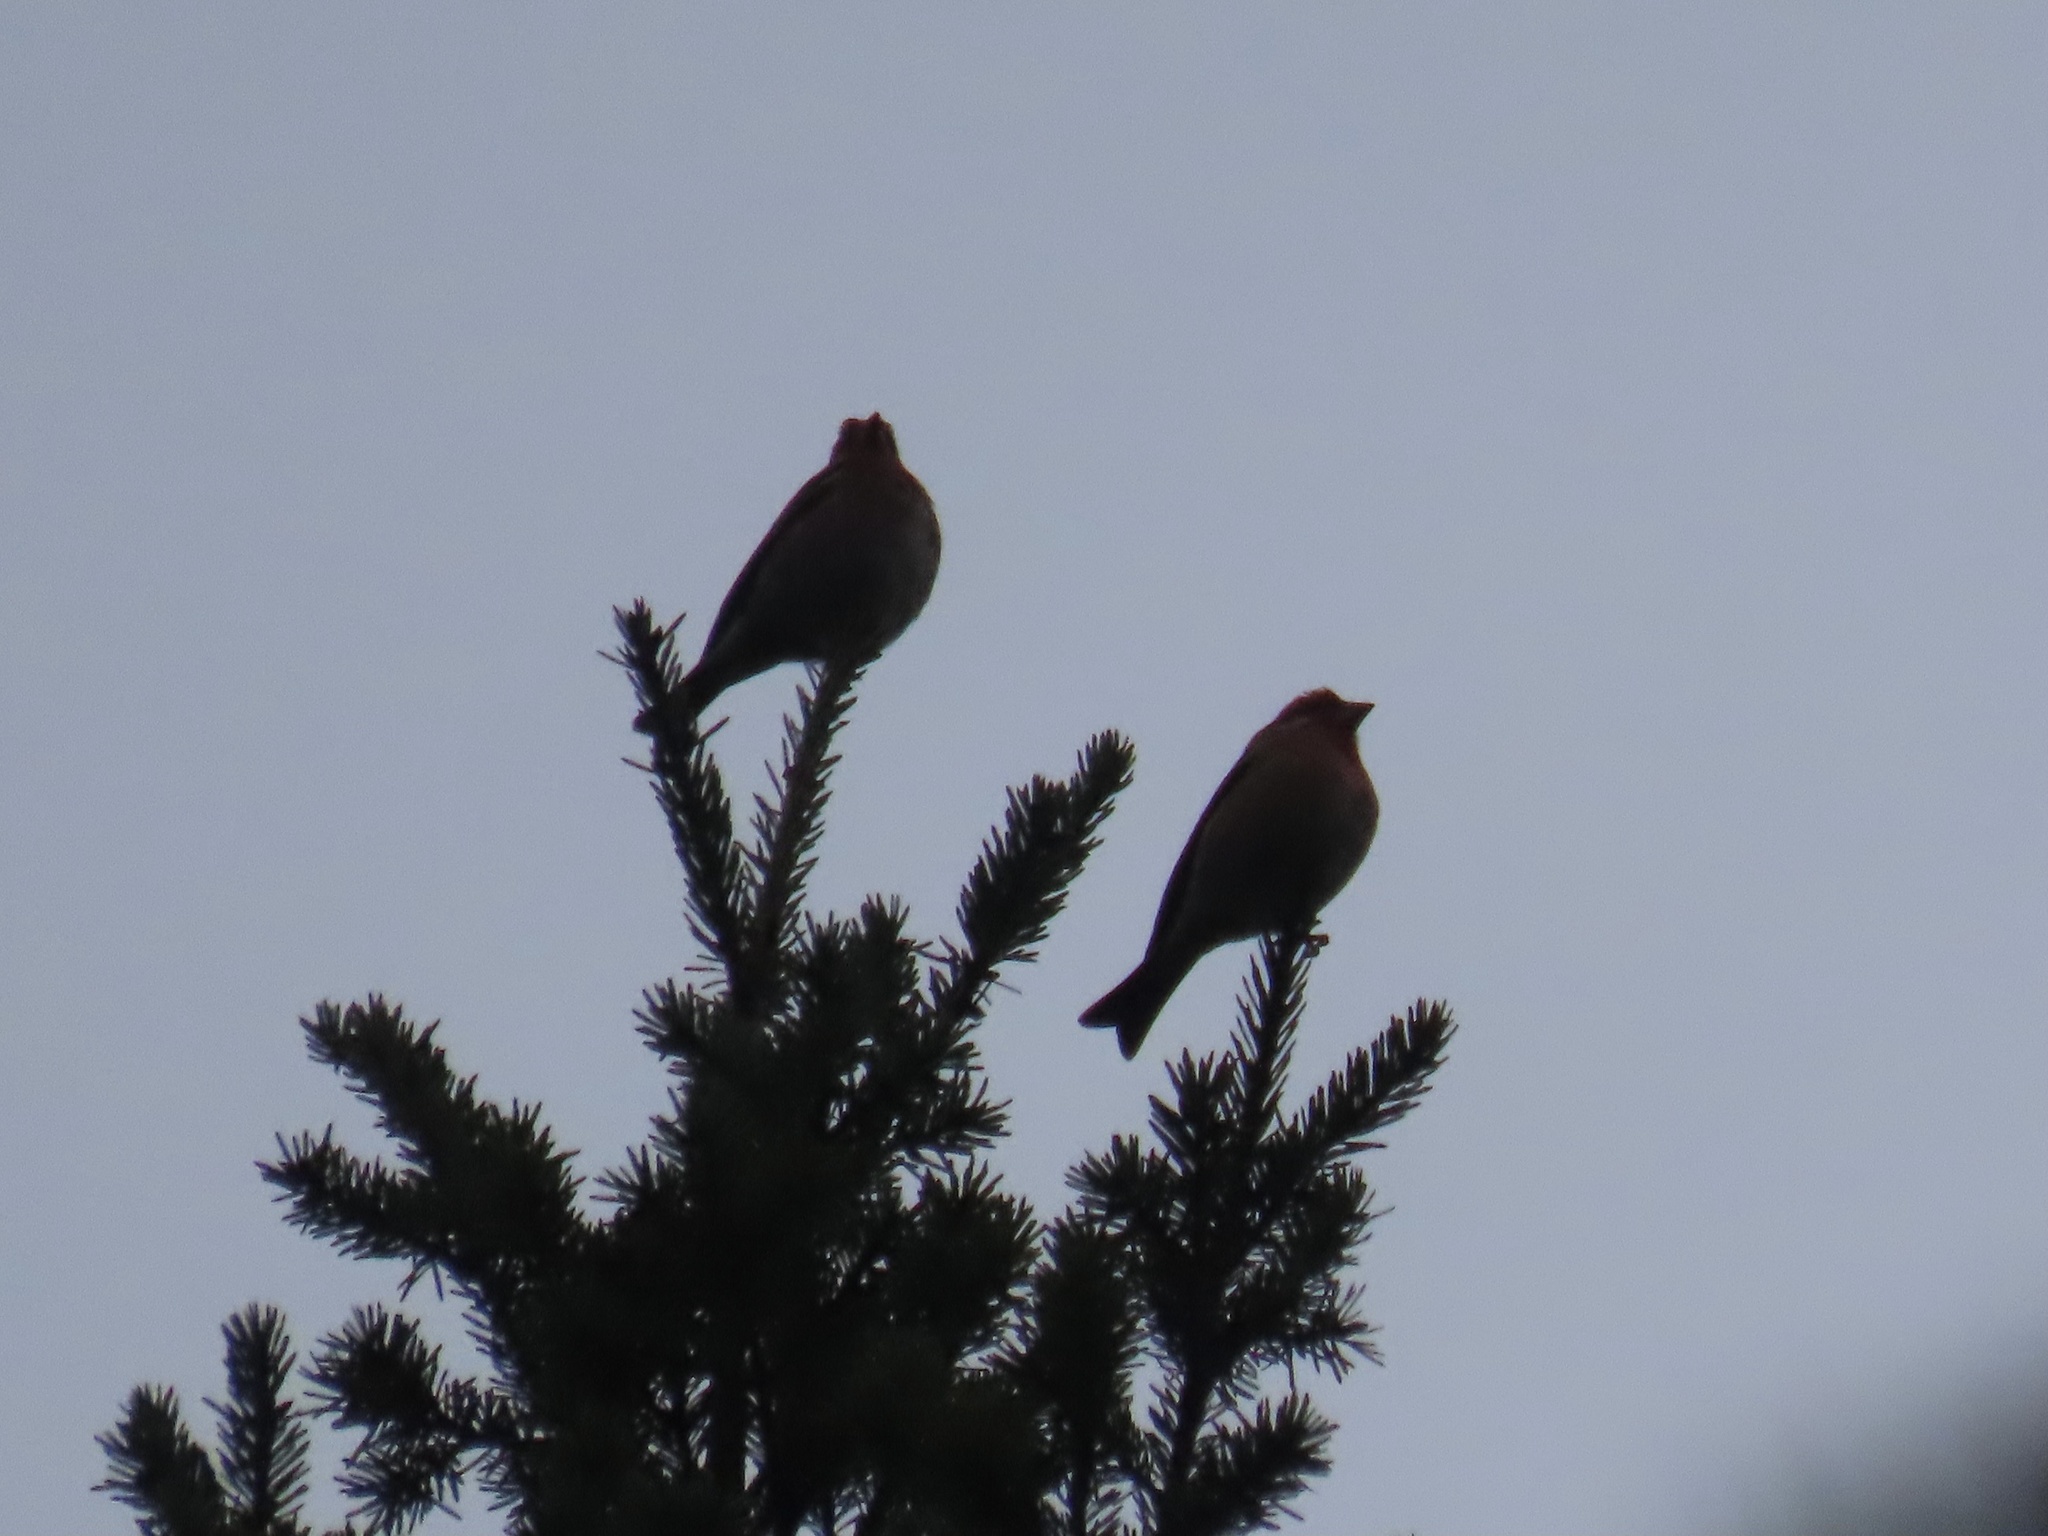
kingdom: Animalia
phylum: Chordata
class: Aves
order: Passeriformes
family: Fringillidae
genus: Haemorhous
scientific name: Haemorhous purpureus
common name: Purple finch
